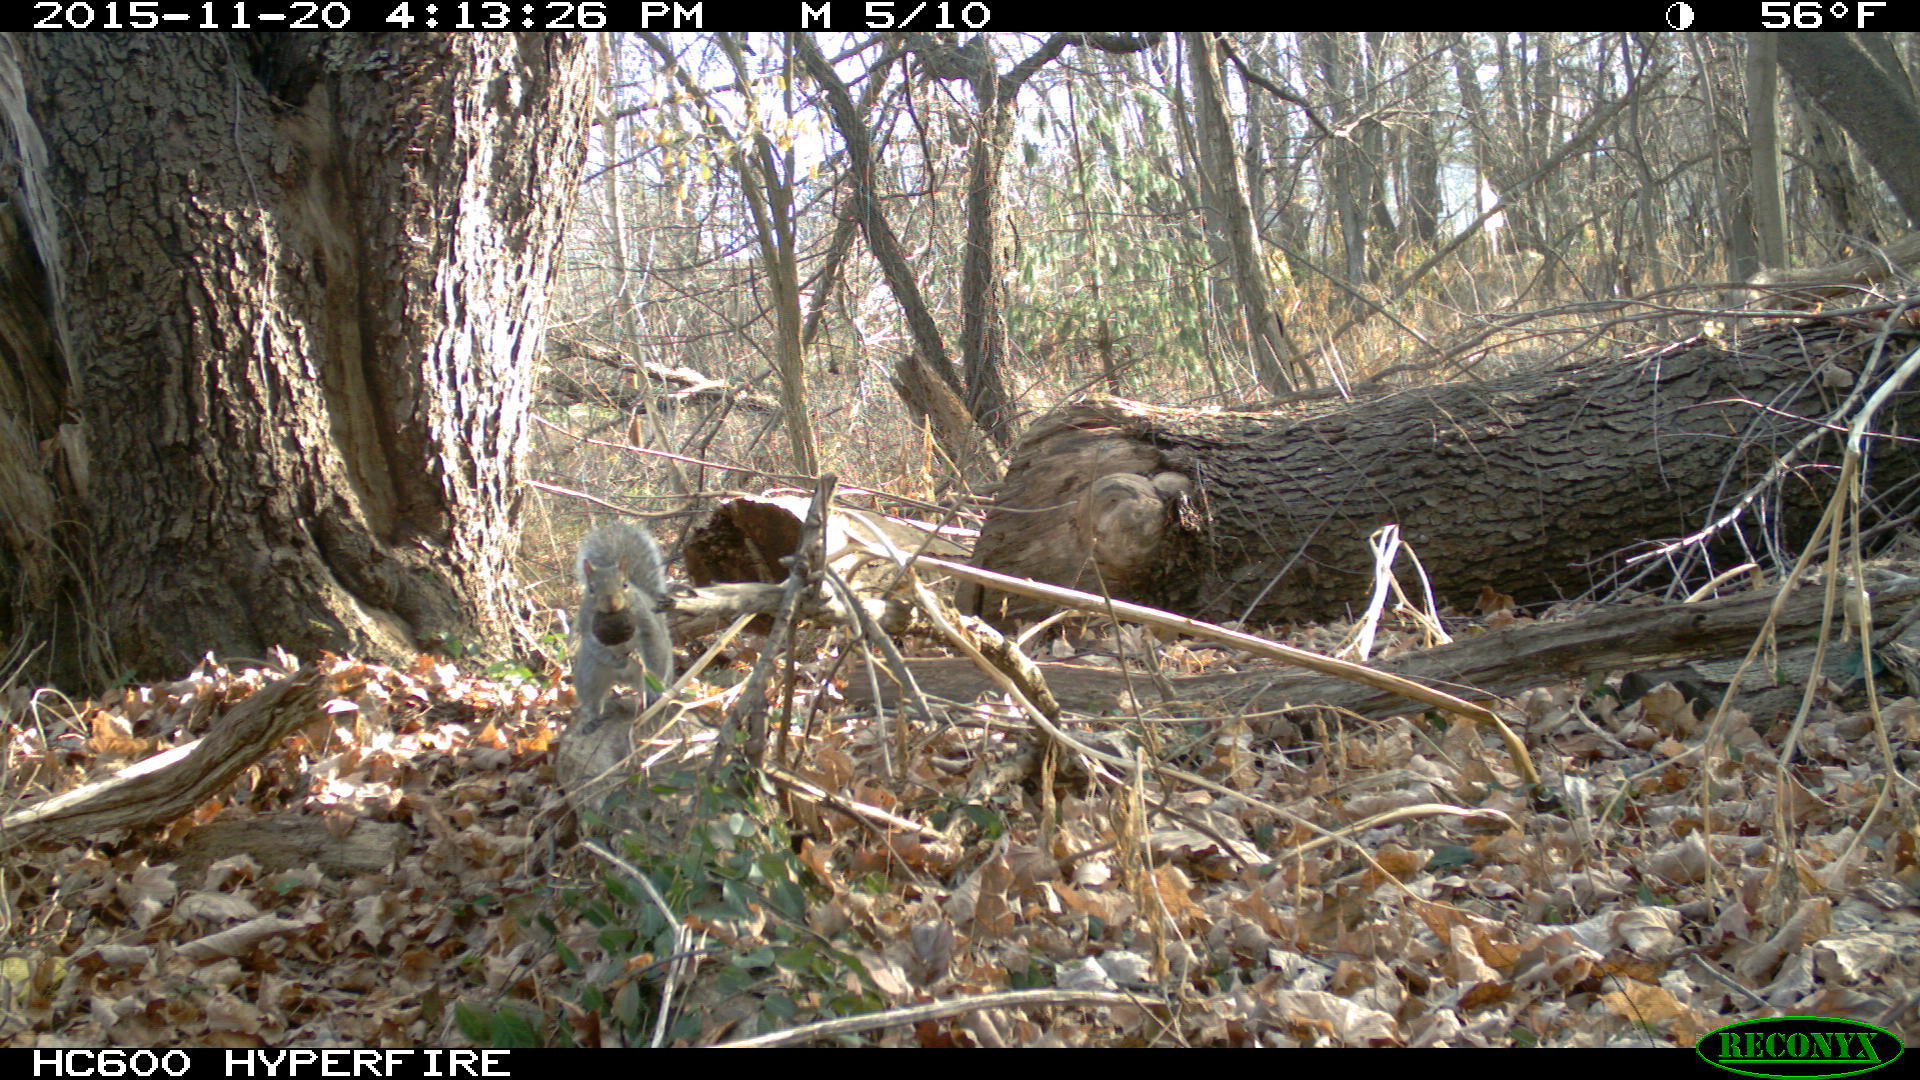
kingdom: Animalia
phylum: Chordata
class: Mammalia
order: Rodentia
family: Sciuridae
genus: Sciurus
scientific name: Sciurus carolinensis
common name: Eastern gray squirrel
